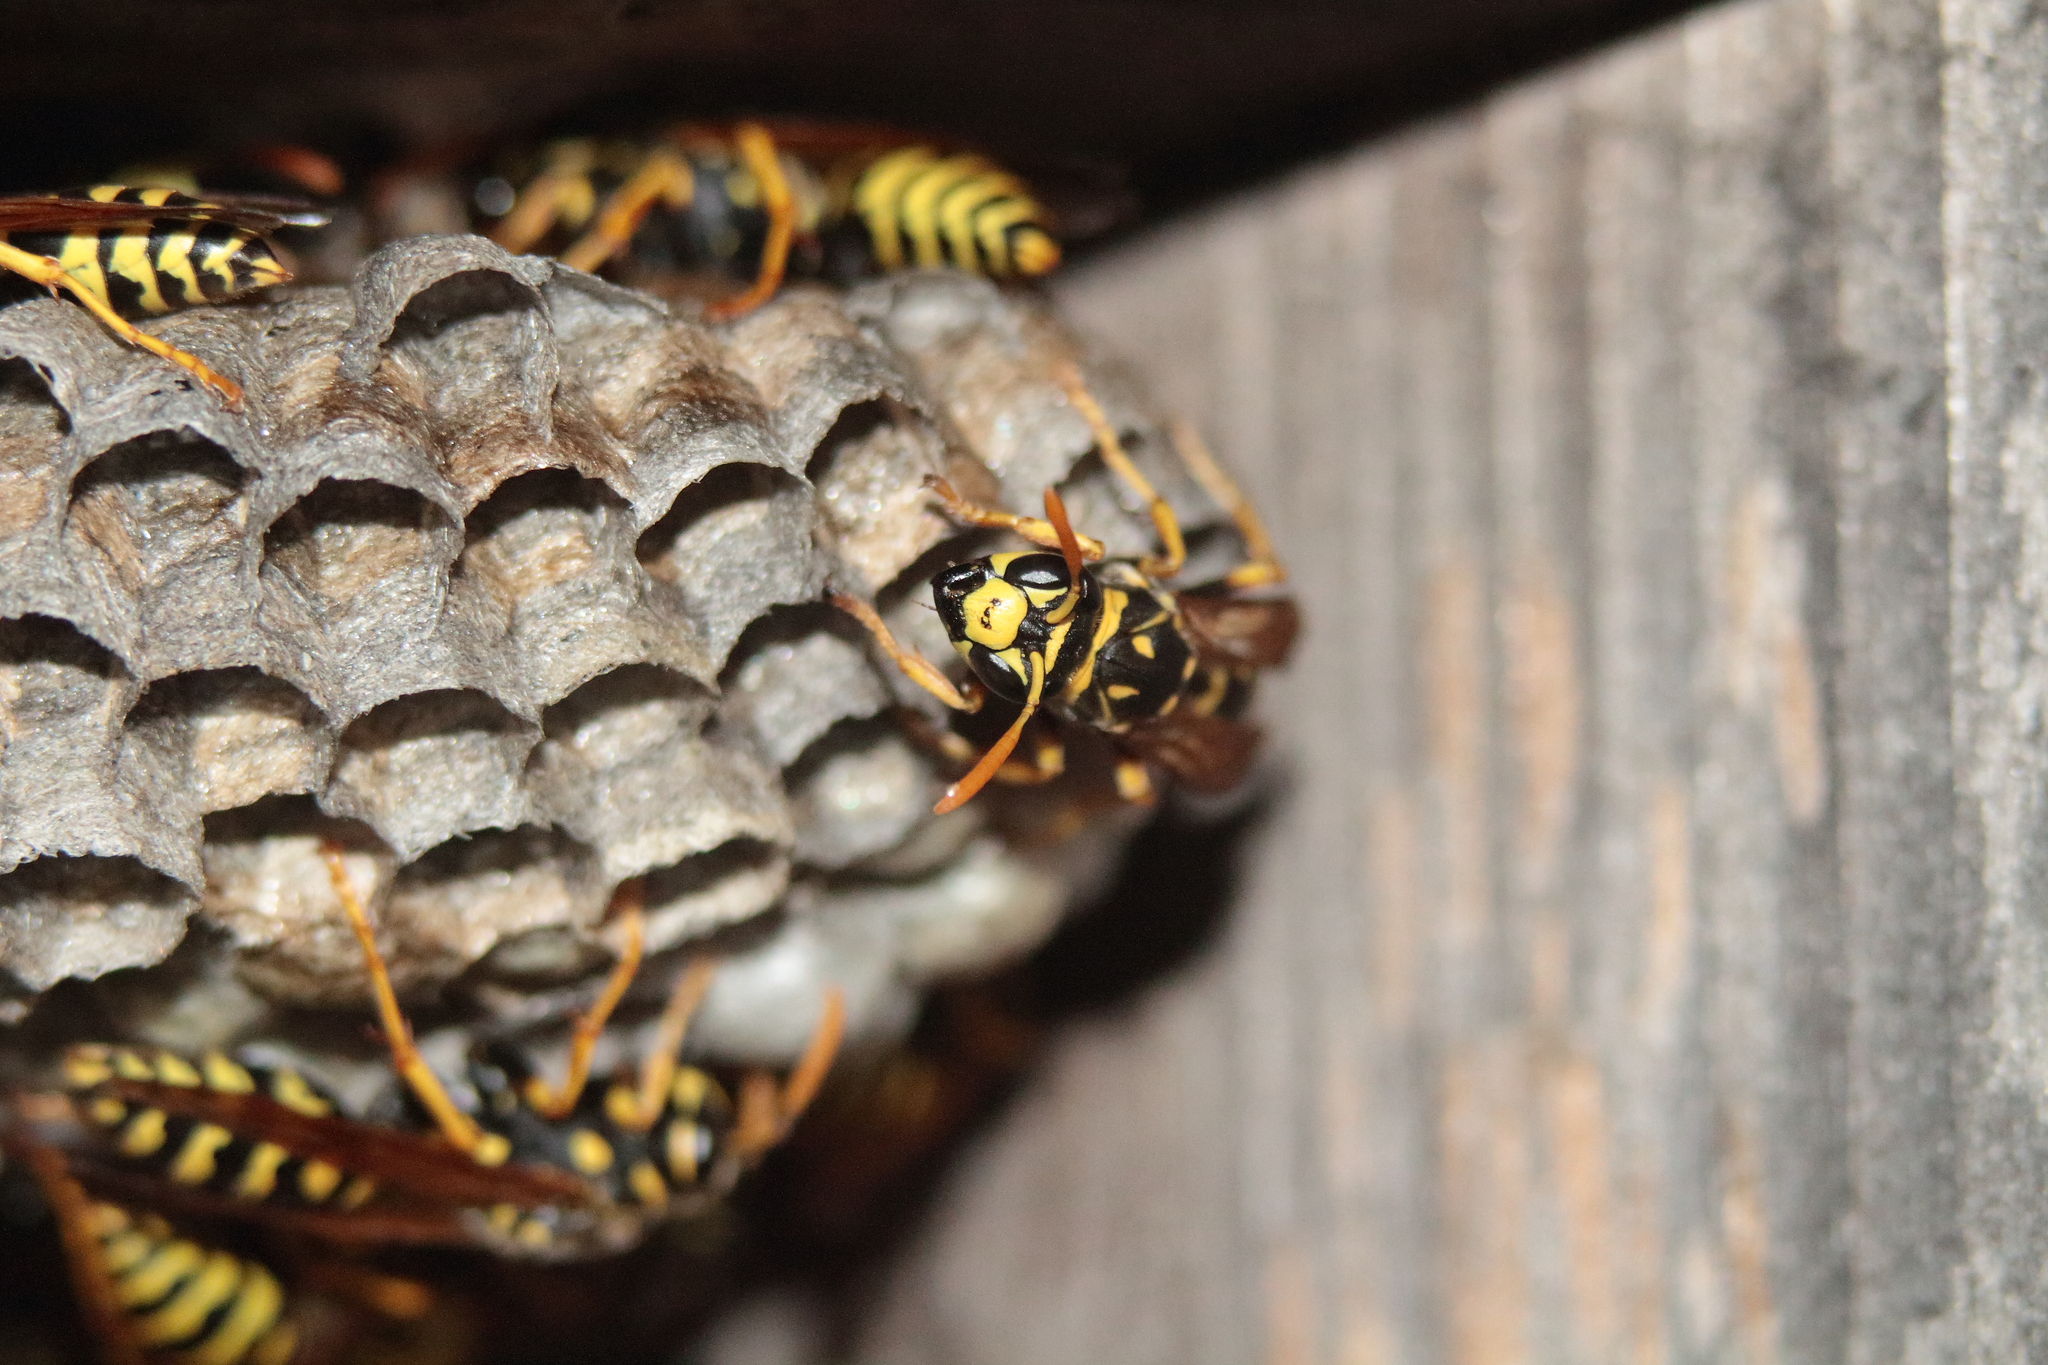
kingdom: Animalia
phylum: Arthropoda
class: Insecta
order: Hymenoptera
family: Eumenidae
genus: Polistes
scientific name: Polistes dominula
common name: Paper wasp
